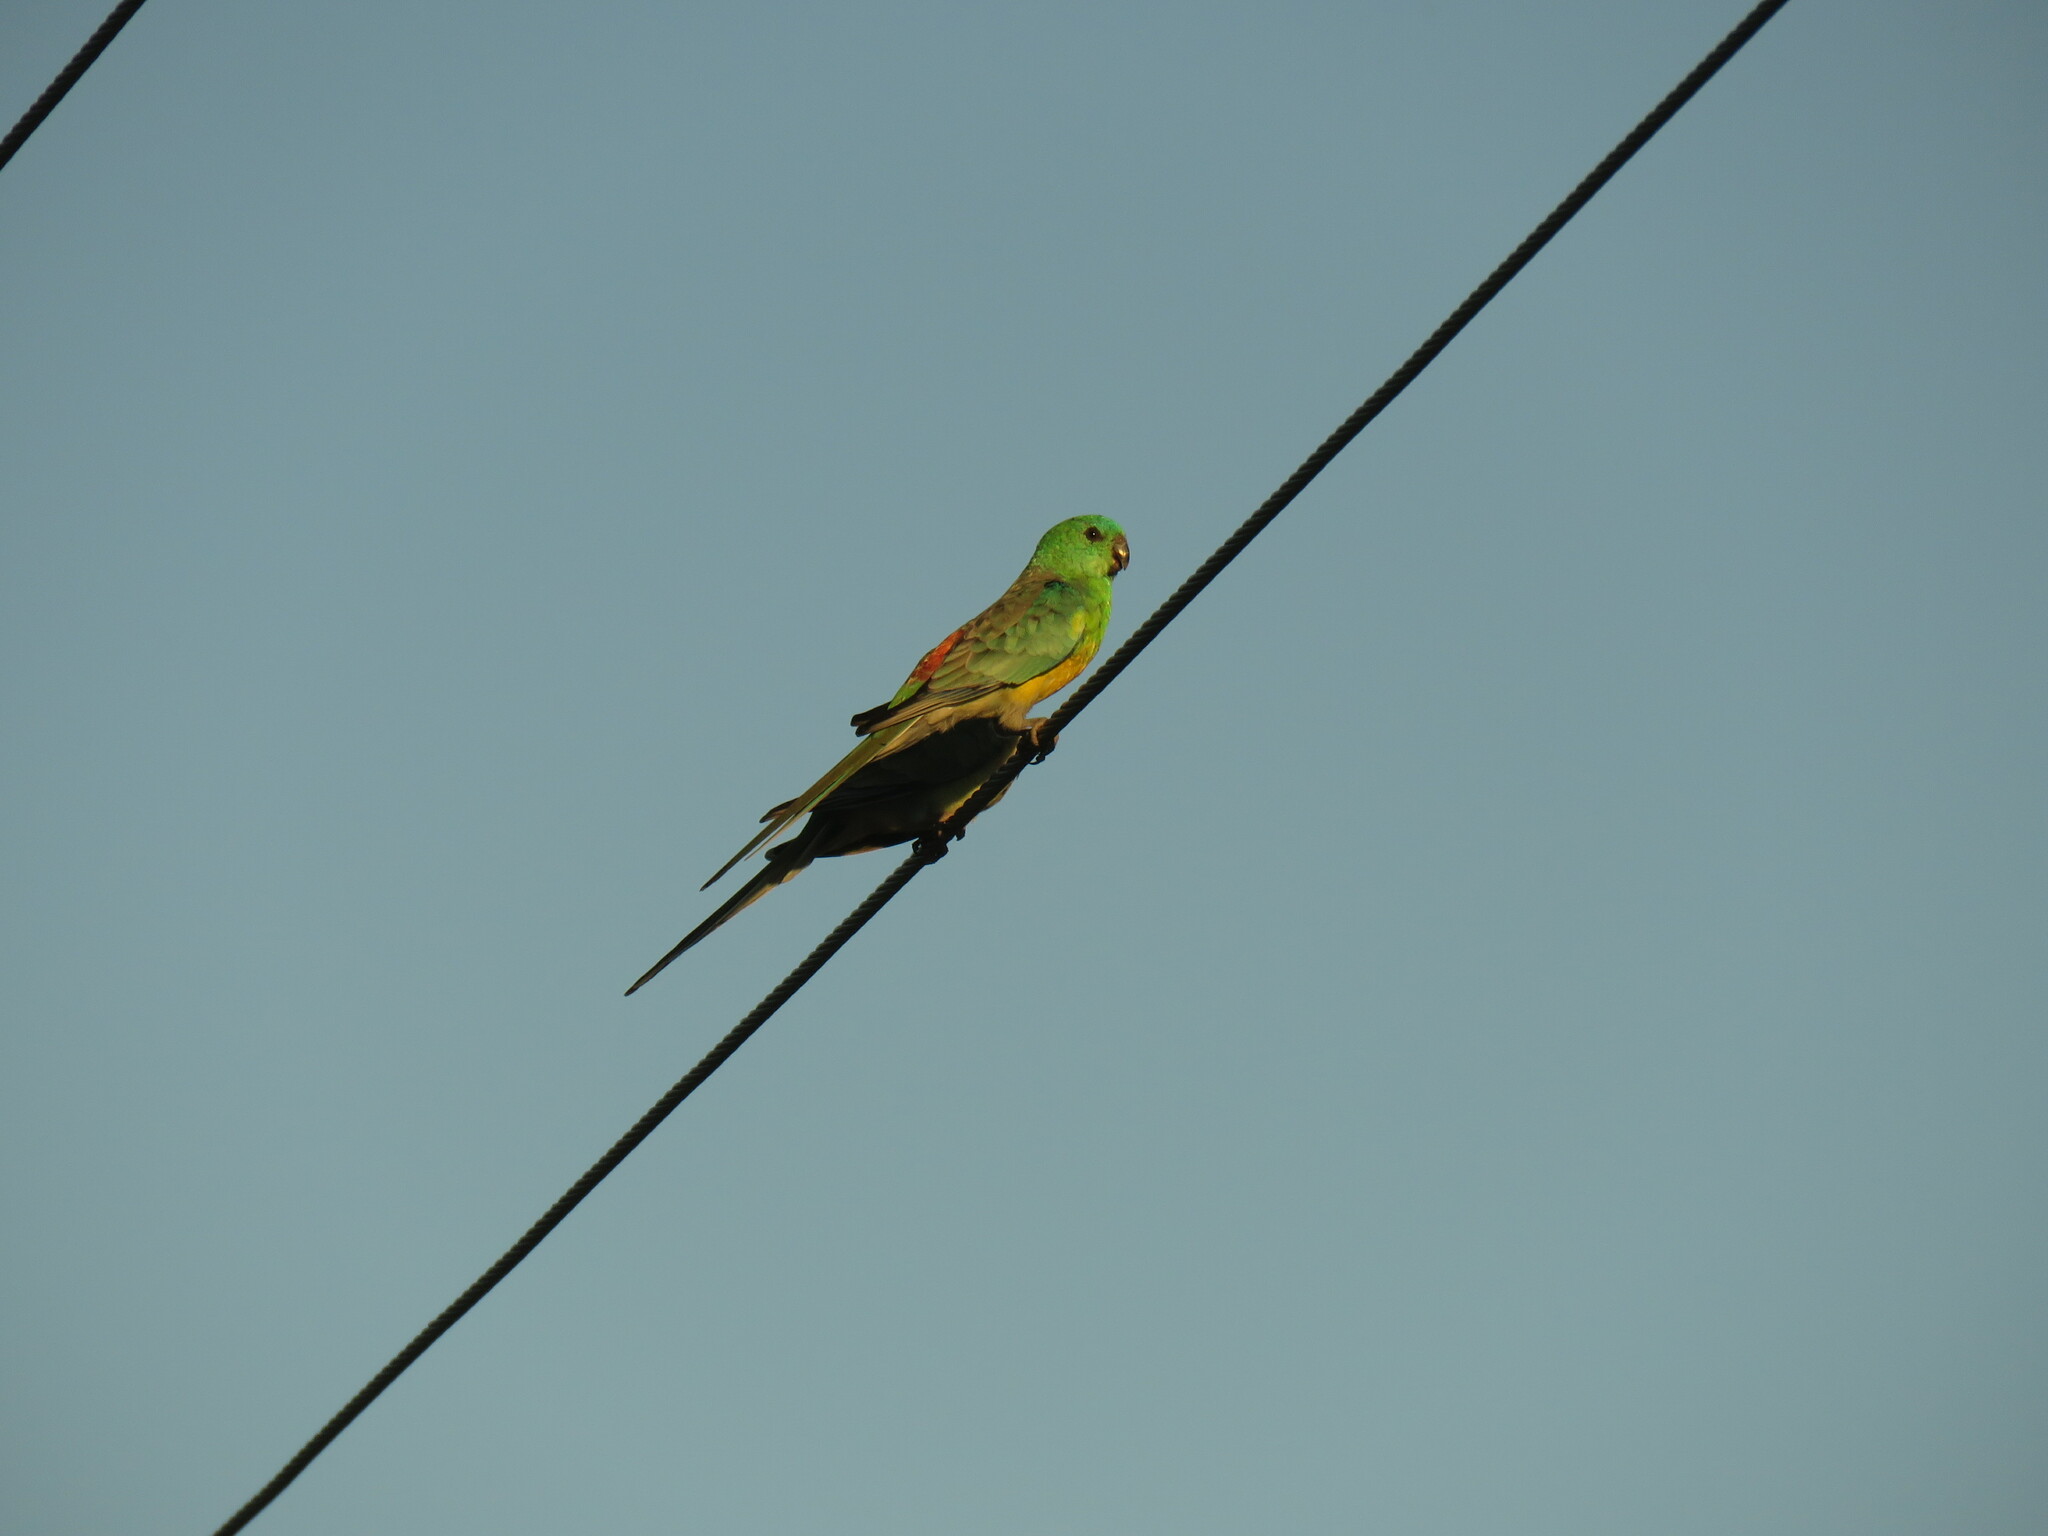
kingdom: Animalia
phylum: Chordata
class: Aves
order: Psittaciformes
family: Psittacidae
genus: Psephotus
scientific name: Psephotus haematonotus
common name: Red-rumped parrot
